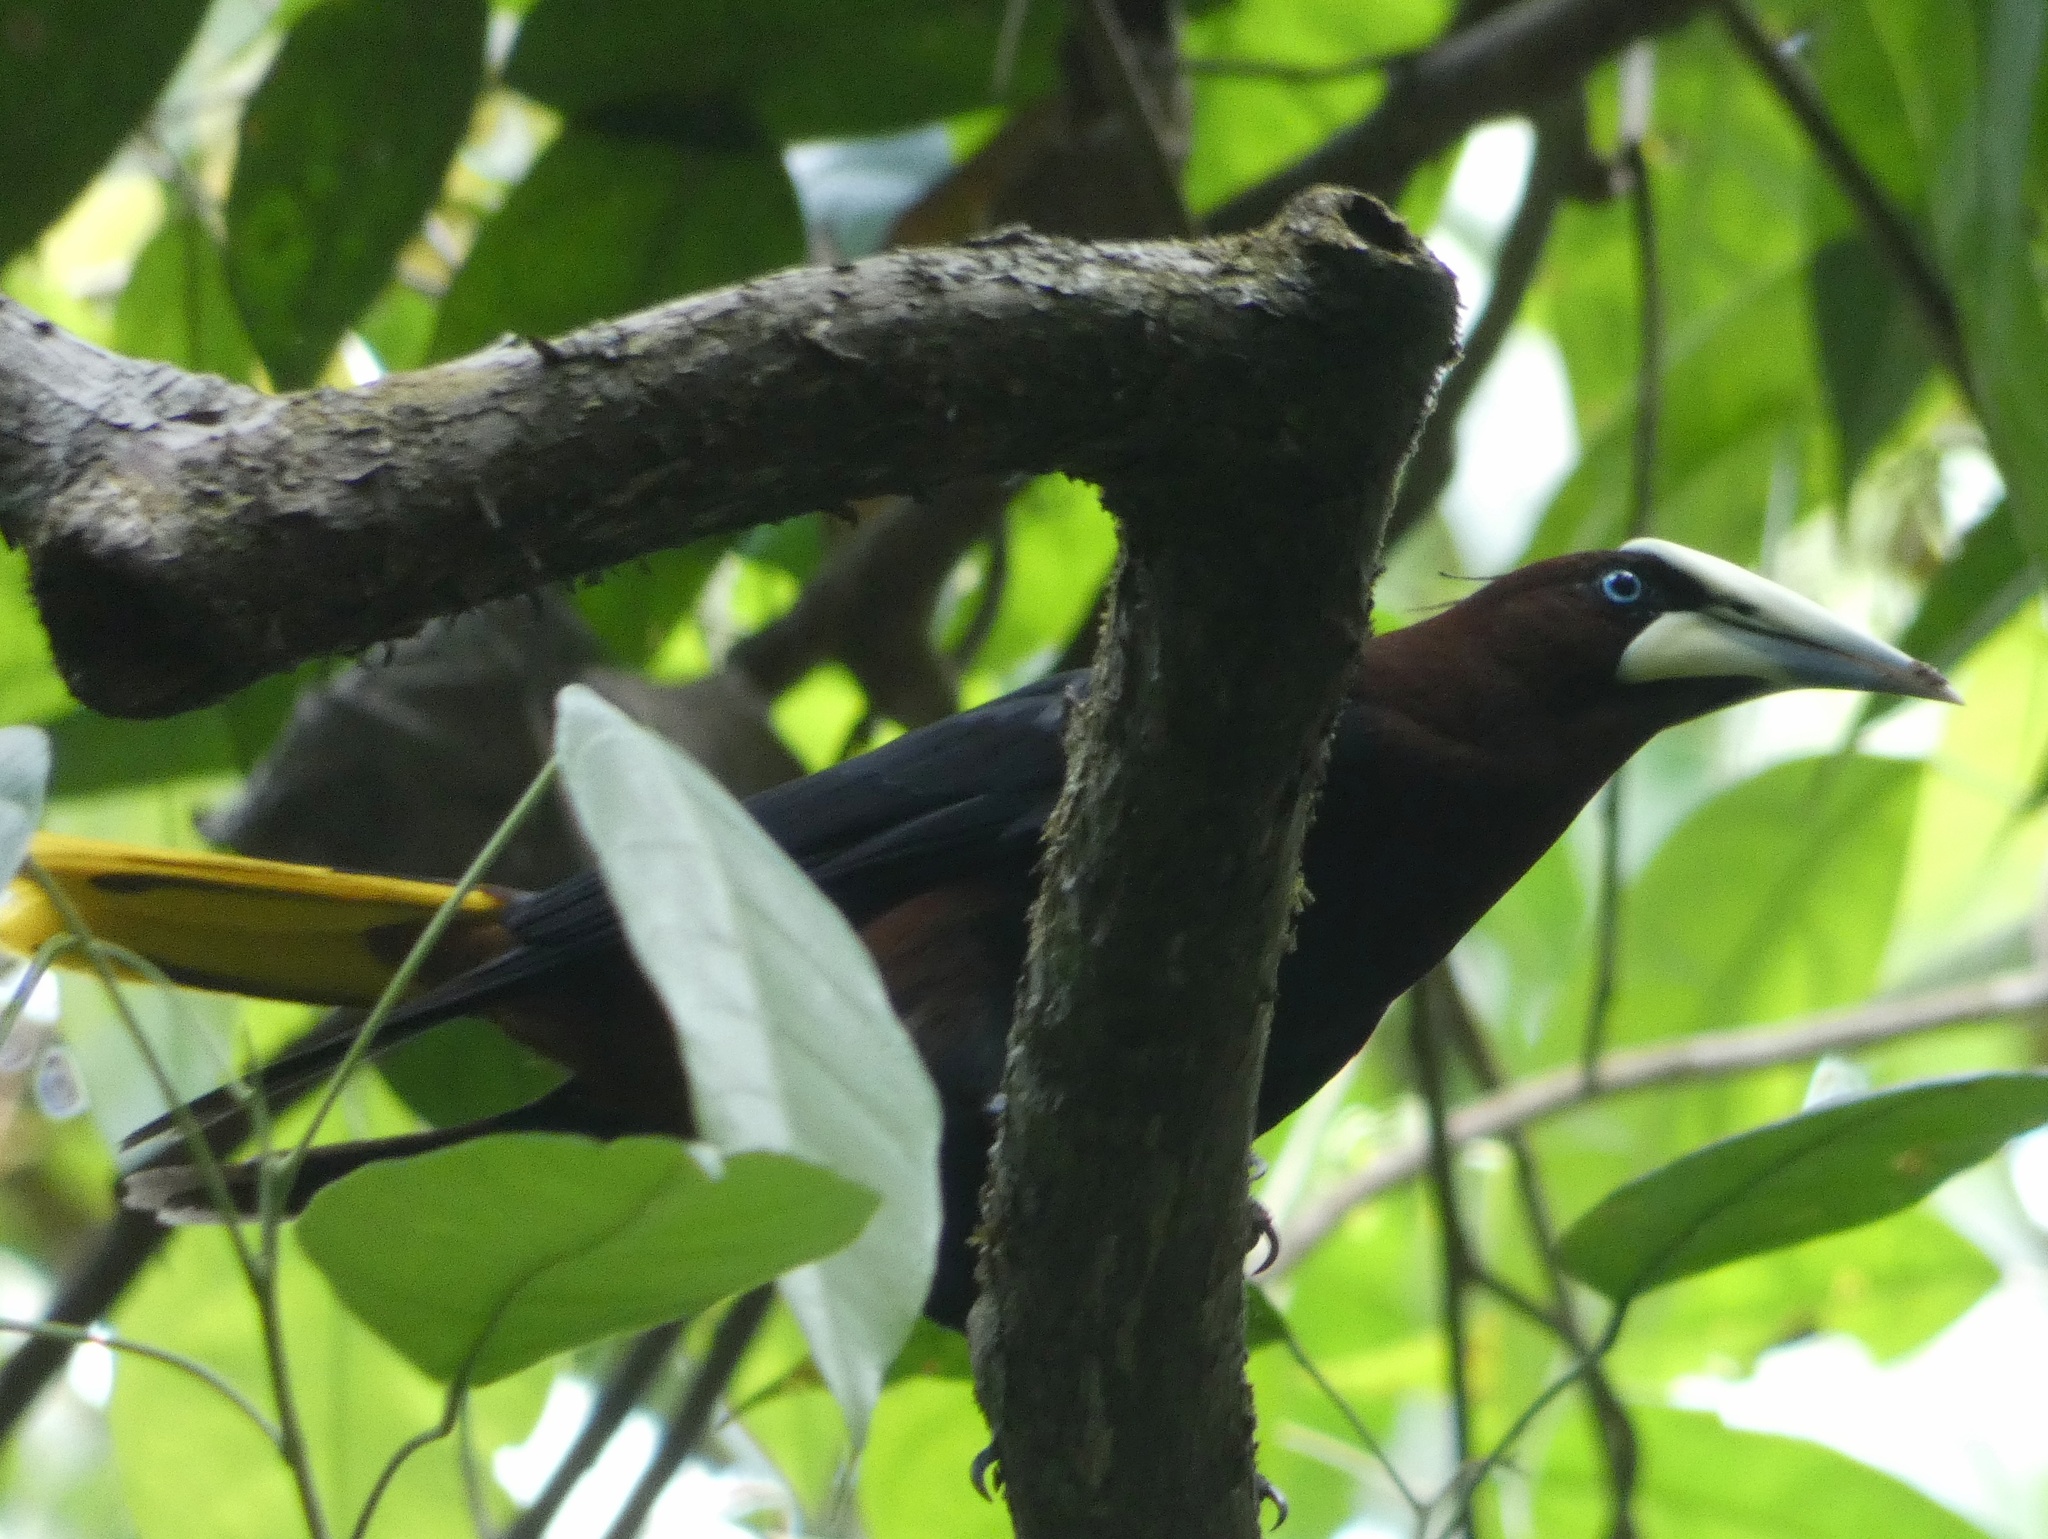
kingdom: Animalia
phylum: Chordata
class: Aves
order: Passeriformes
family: Icteridae
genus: Psarocolius
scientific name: Psarocolius wagleri
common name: Chestnut-headed oropendola
